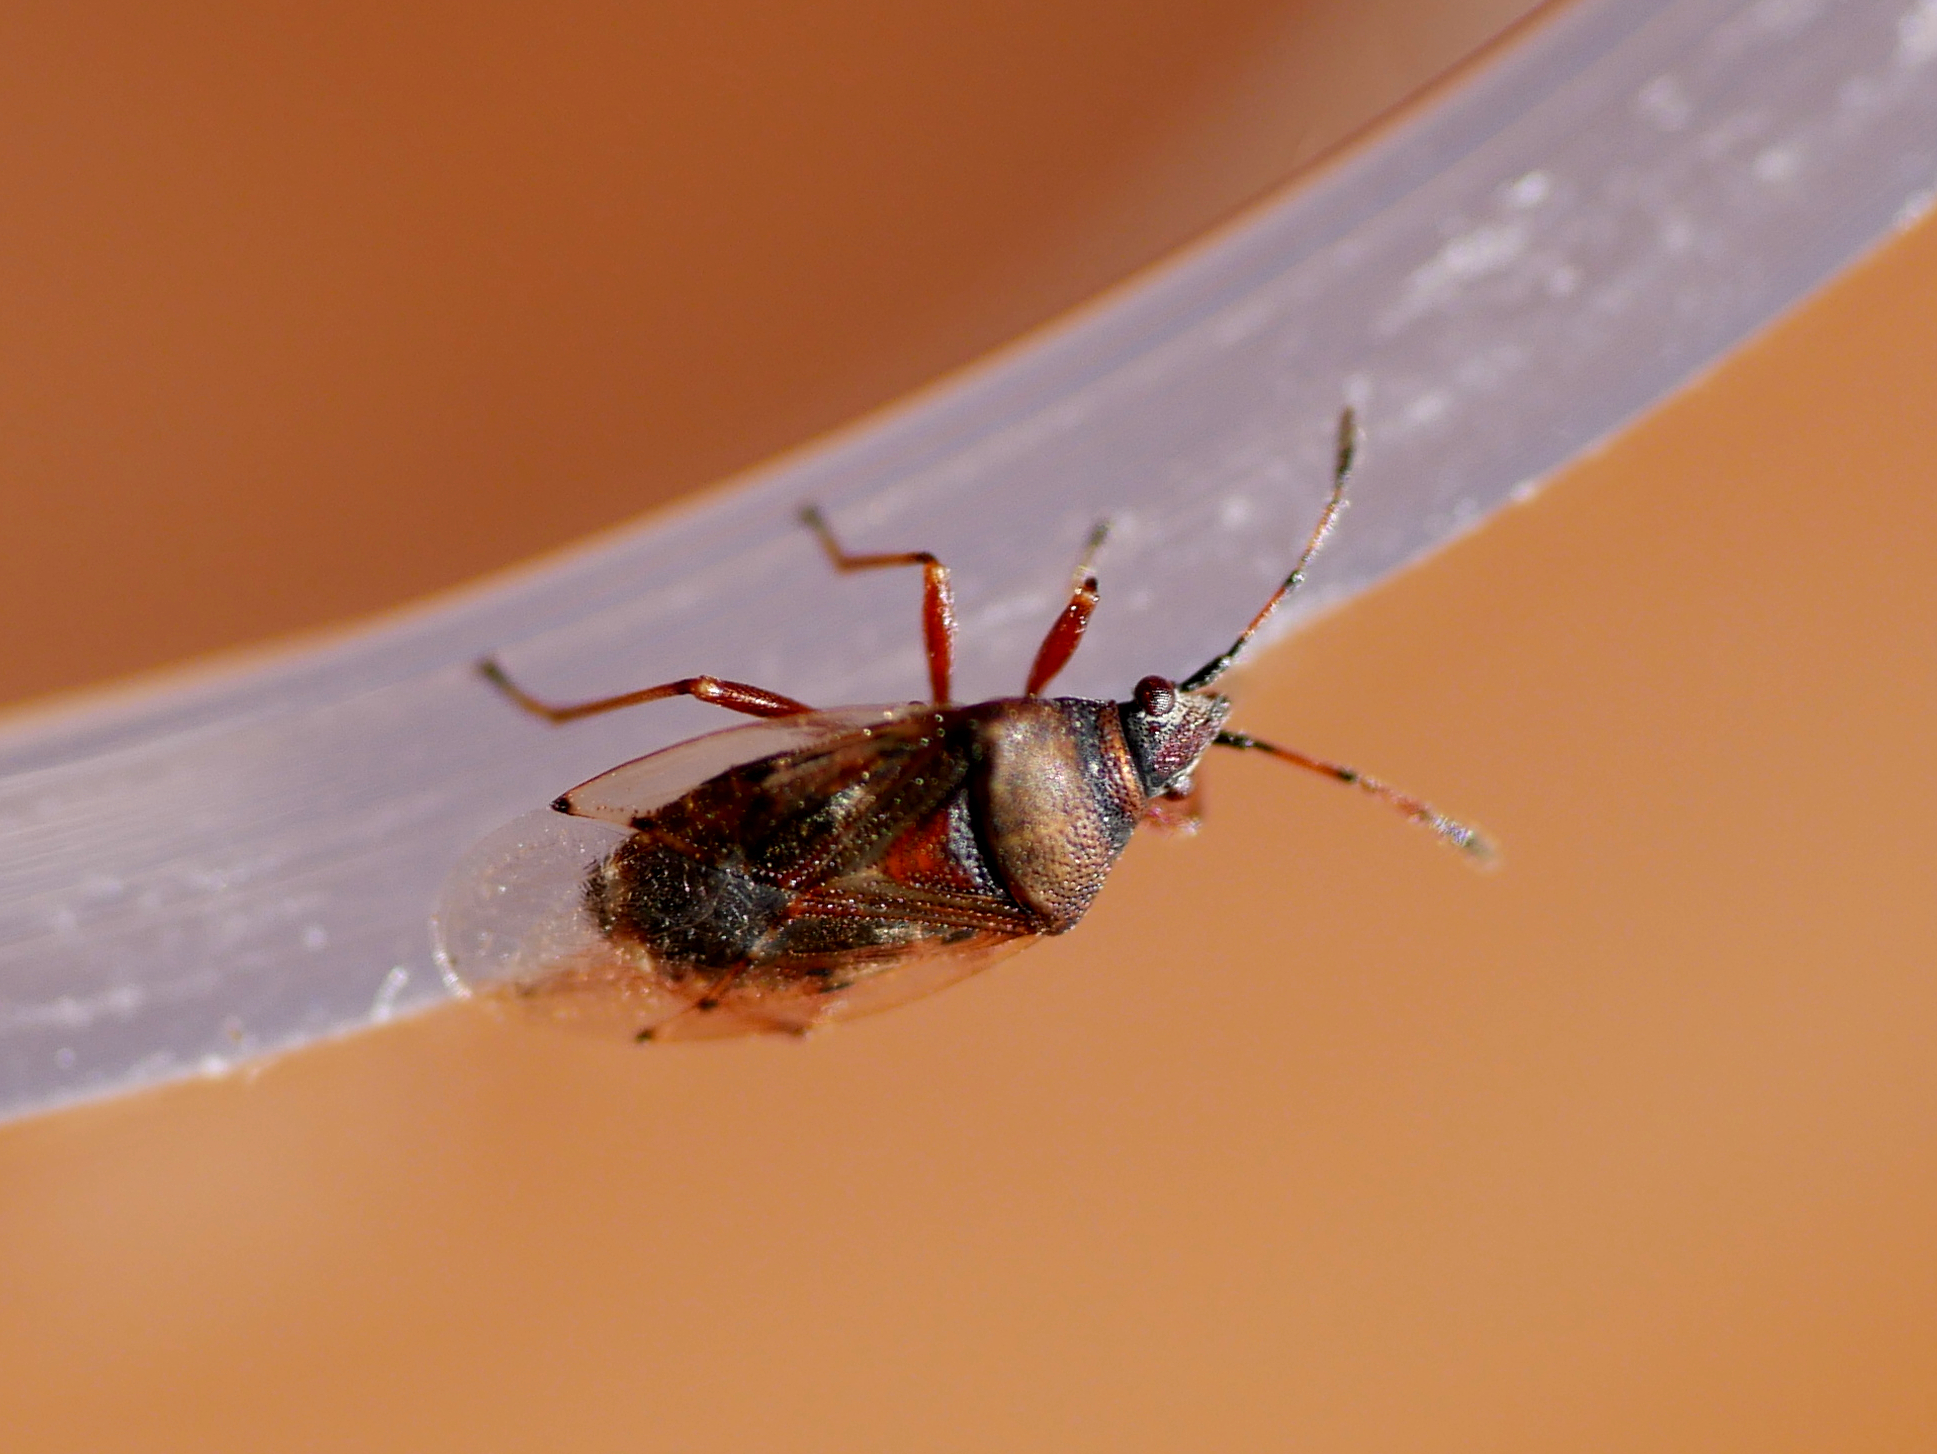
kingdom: Animalia
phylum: Arthropoda
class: Insecta
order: Hemiptera
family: Lygaeidae
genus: Kleidocerys
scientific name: Kleidocerys resedae
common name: Birch catkin bug
